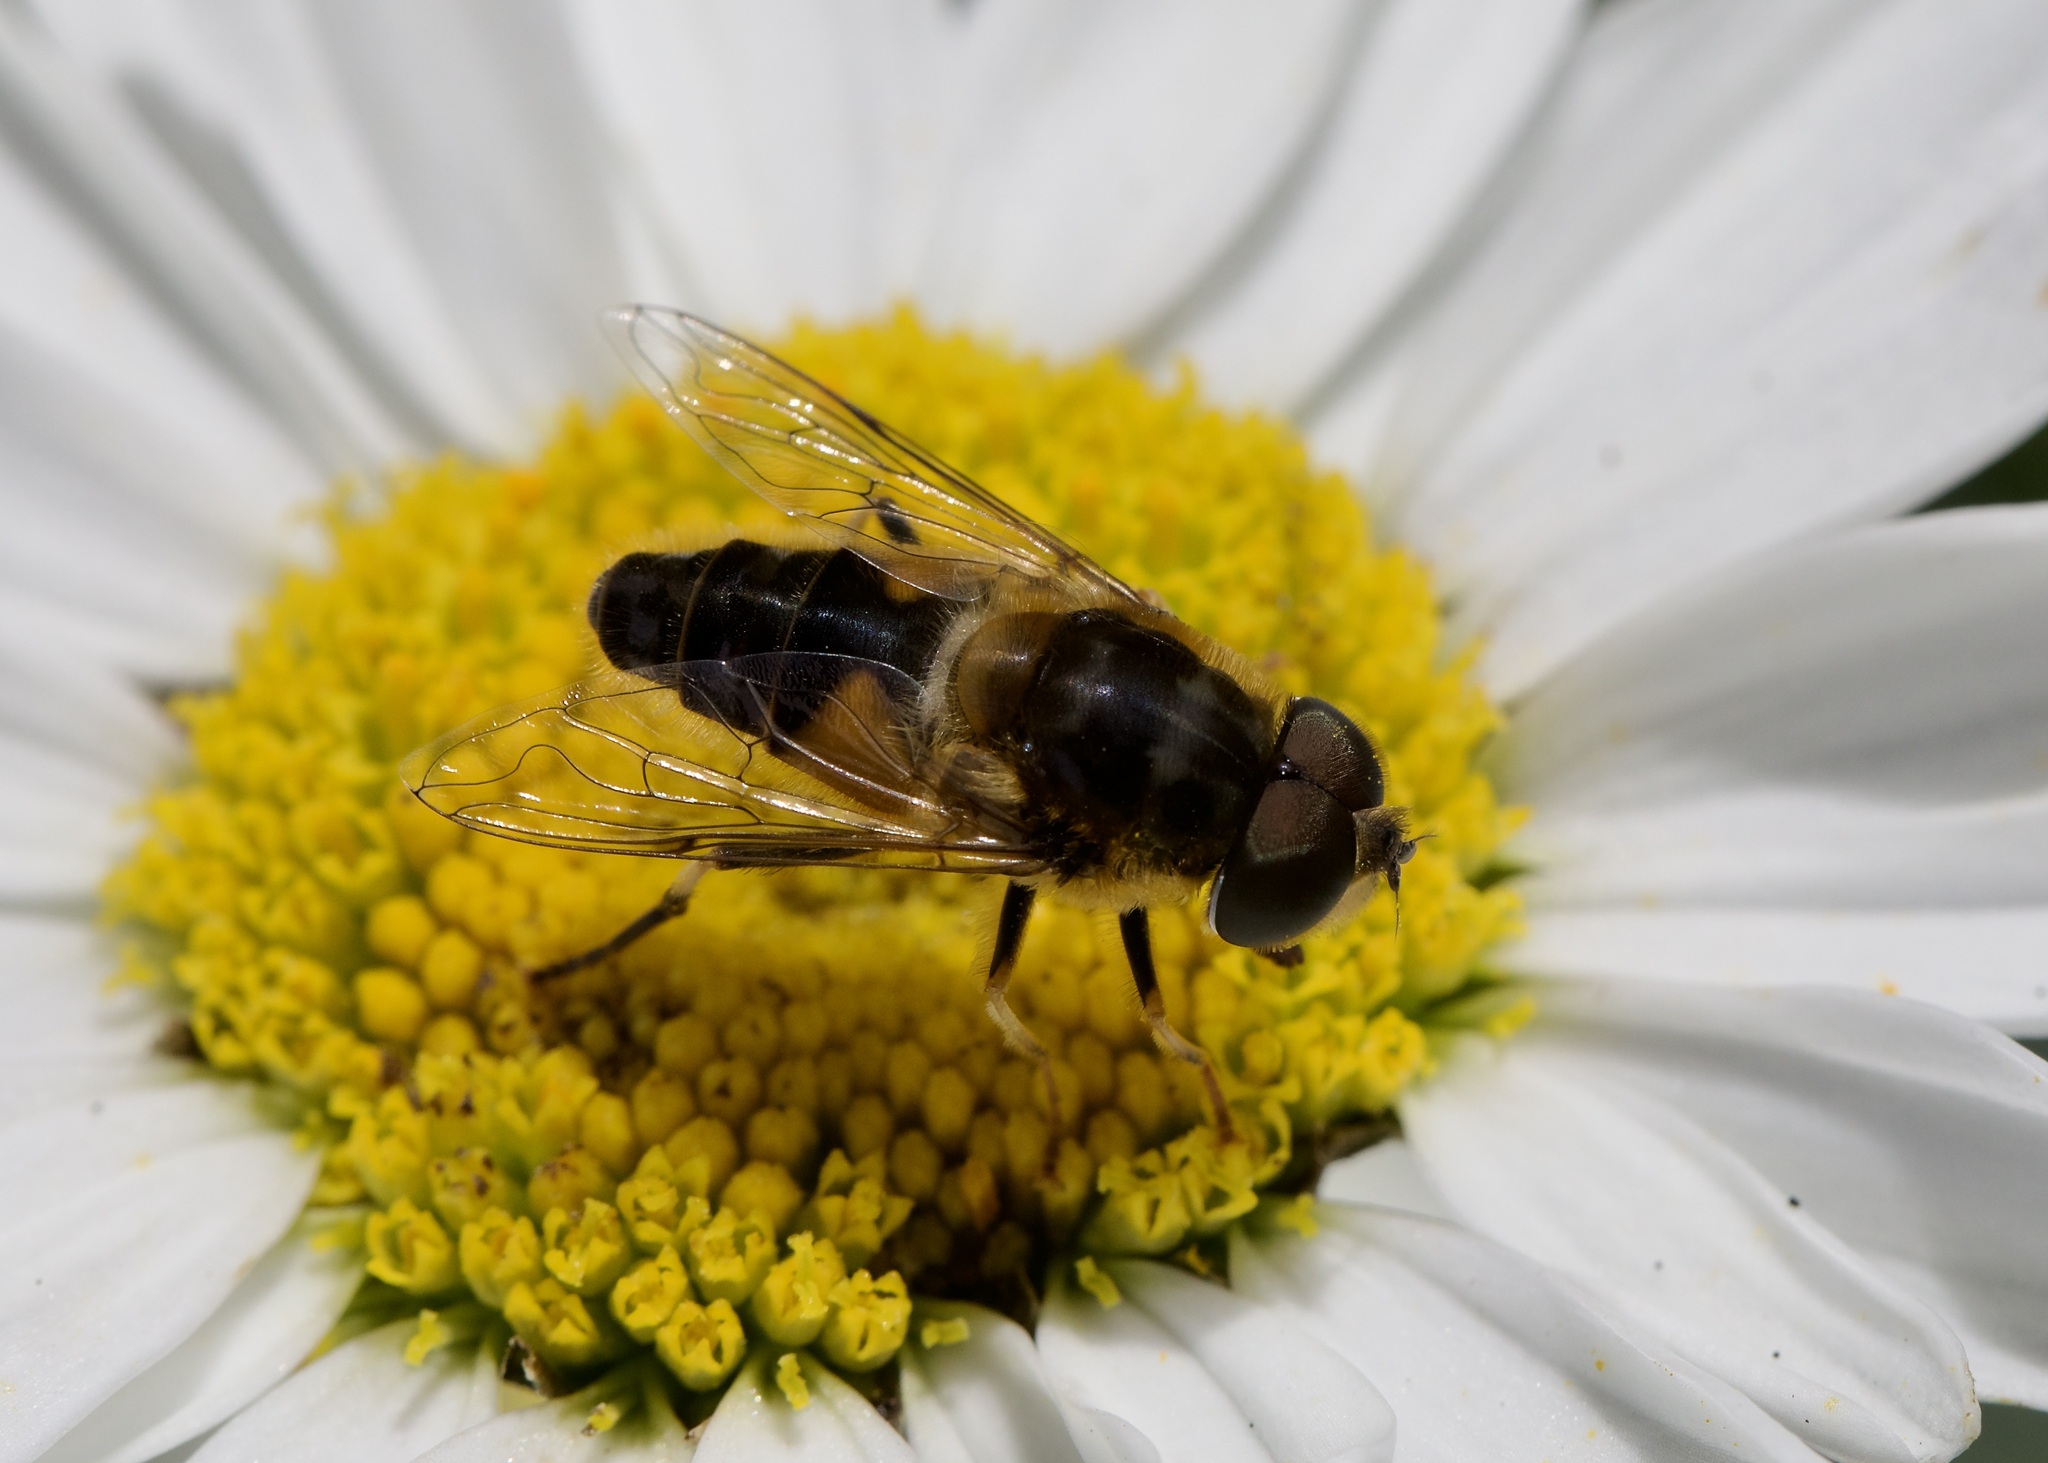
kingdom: Animalia
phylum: Arthropoda
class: Insecta
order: Diptera
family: Syrphidae
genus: Eristalis
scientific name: Eristalis pertinax
